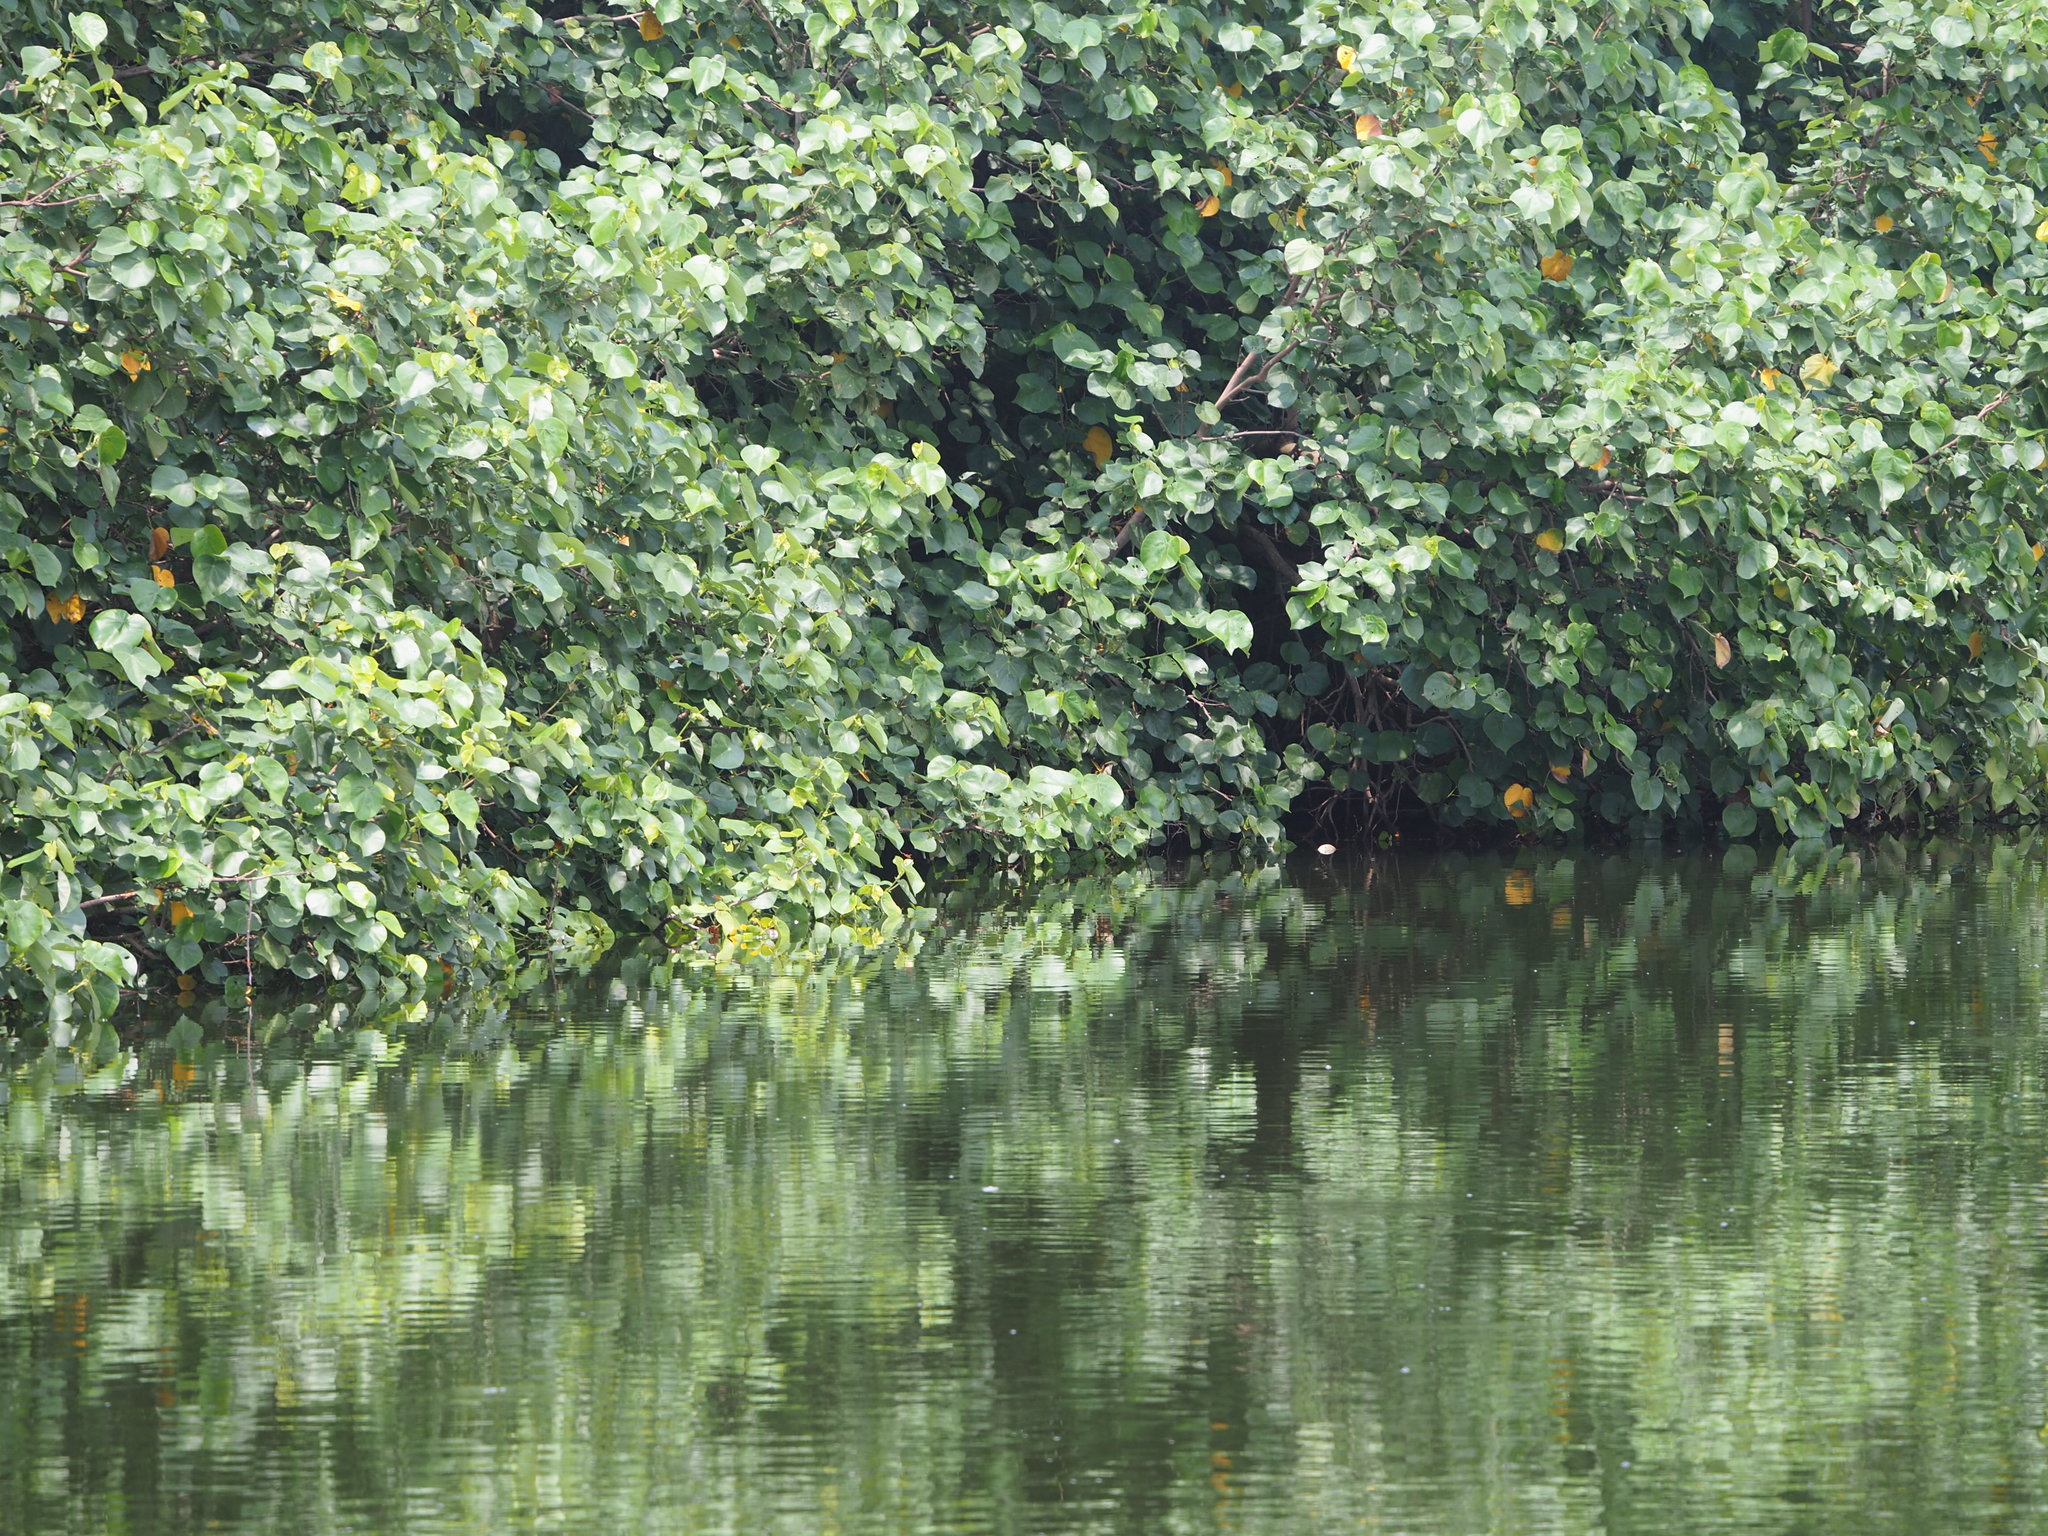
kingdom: Plantae
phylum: Tracheophyta
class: Magnoliopsida
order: Malvales
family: Malvaceae
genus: Talipariti
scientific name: Talipariti tiliaceum
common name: Sea hibiscus
